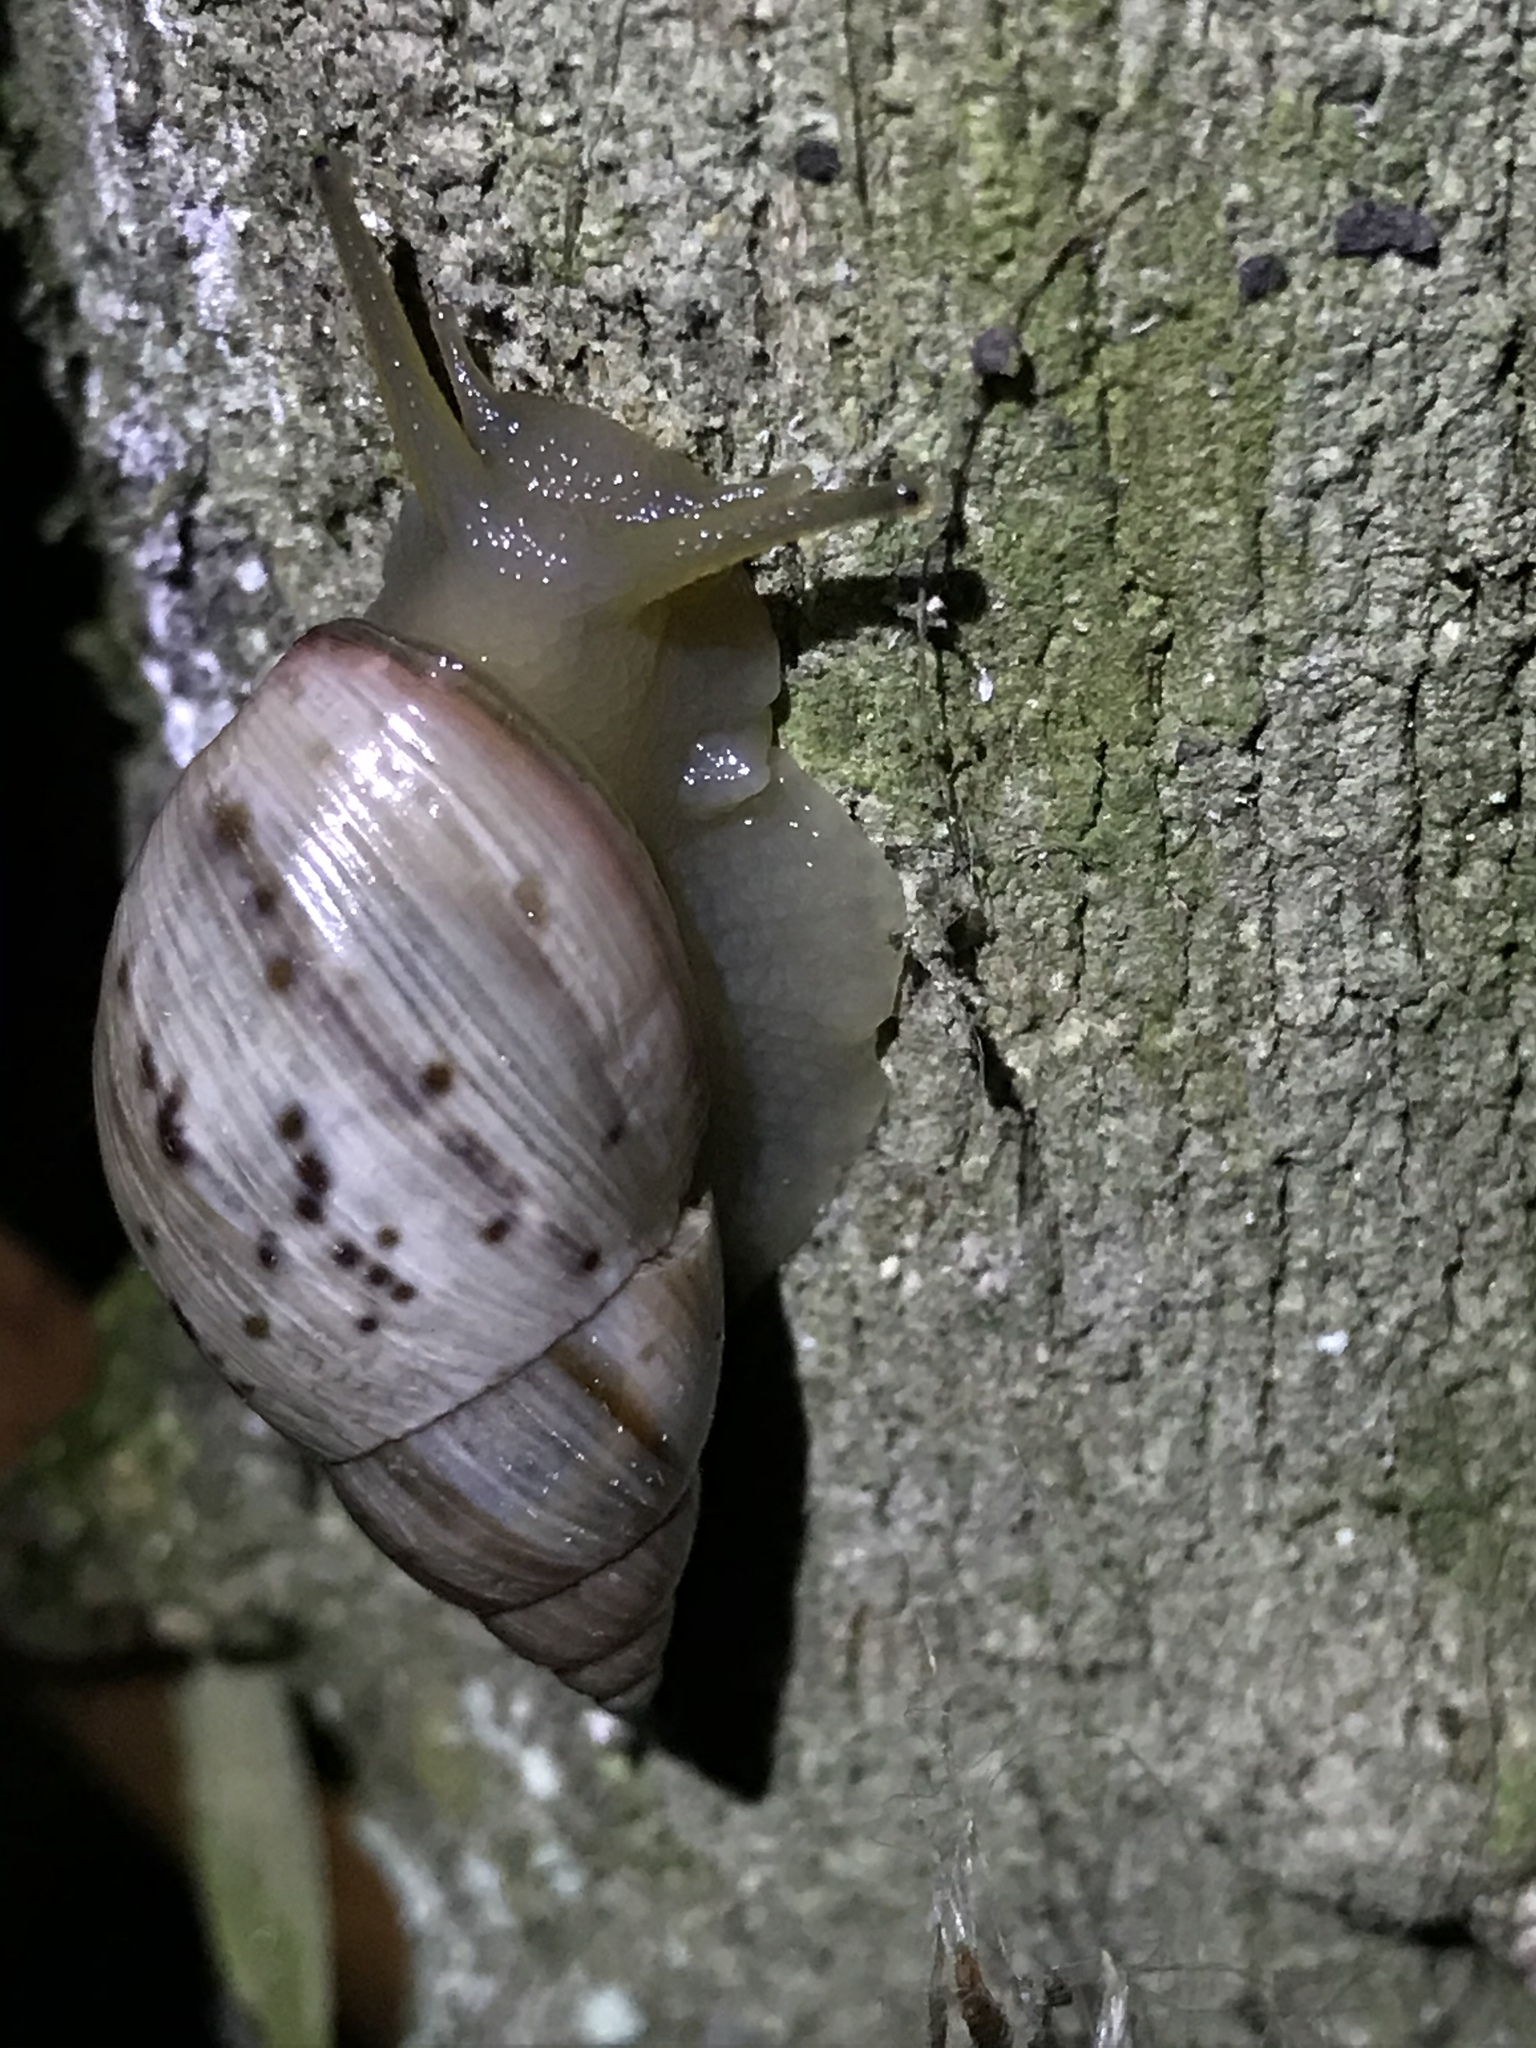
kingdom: Animalia
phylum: Mollusca
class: Gastropoda
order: Stylommatophora
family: Bulimulidae
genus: Drymaeus
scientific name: Drymaeus
